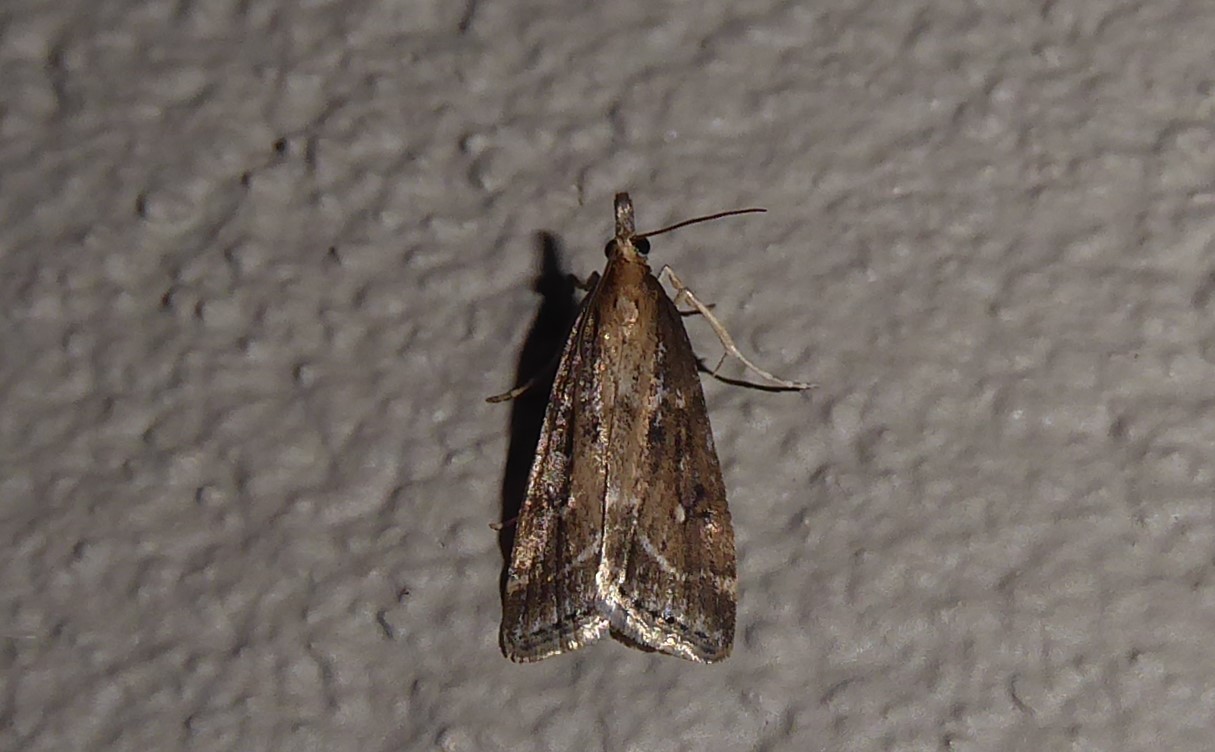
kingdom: Animalia
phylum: Arthropoda
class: Insecta
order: Lepidoptera
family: Crambidae
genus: Eudonia
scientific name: Eudonia octophora
